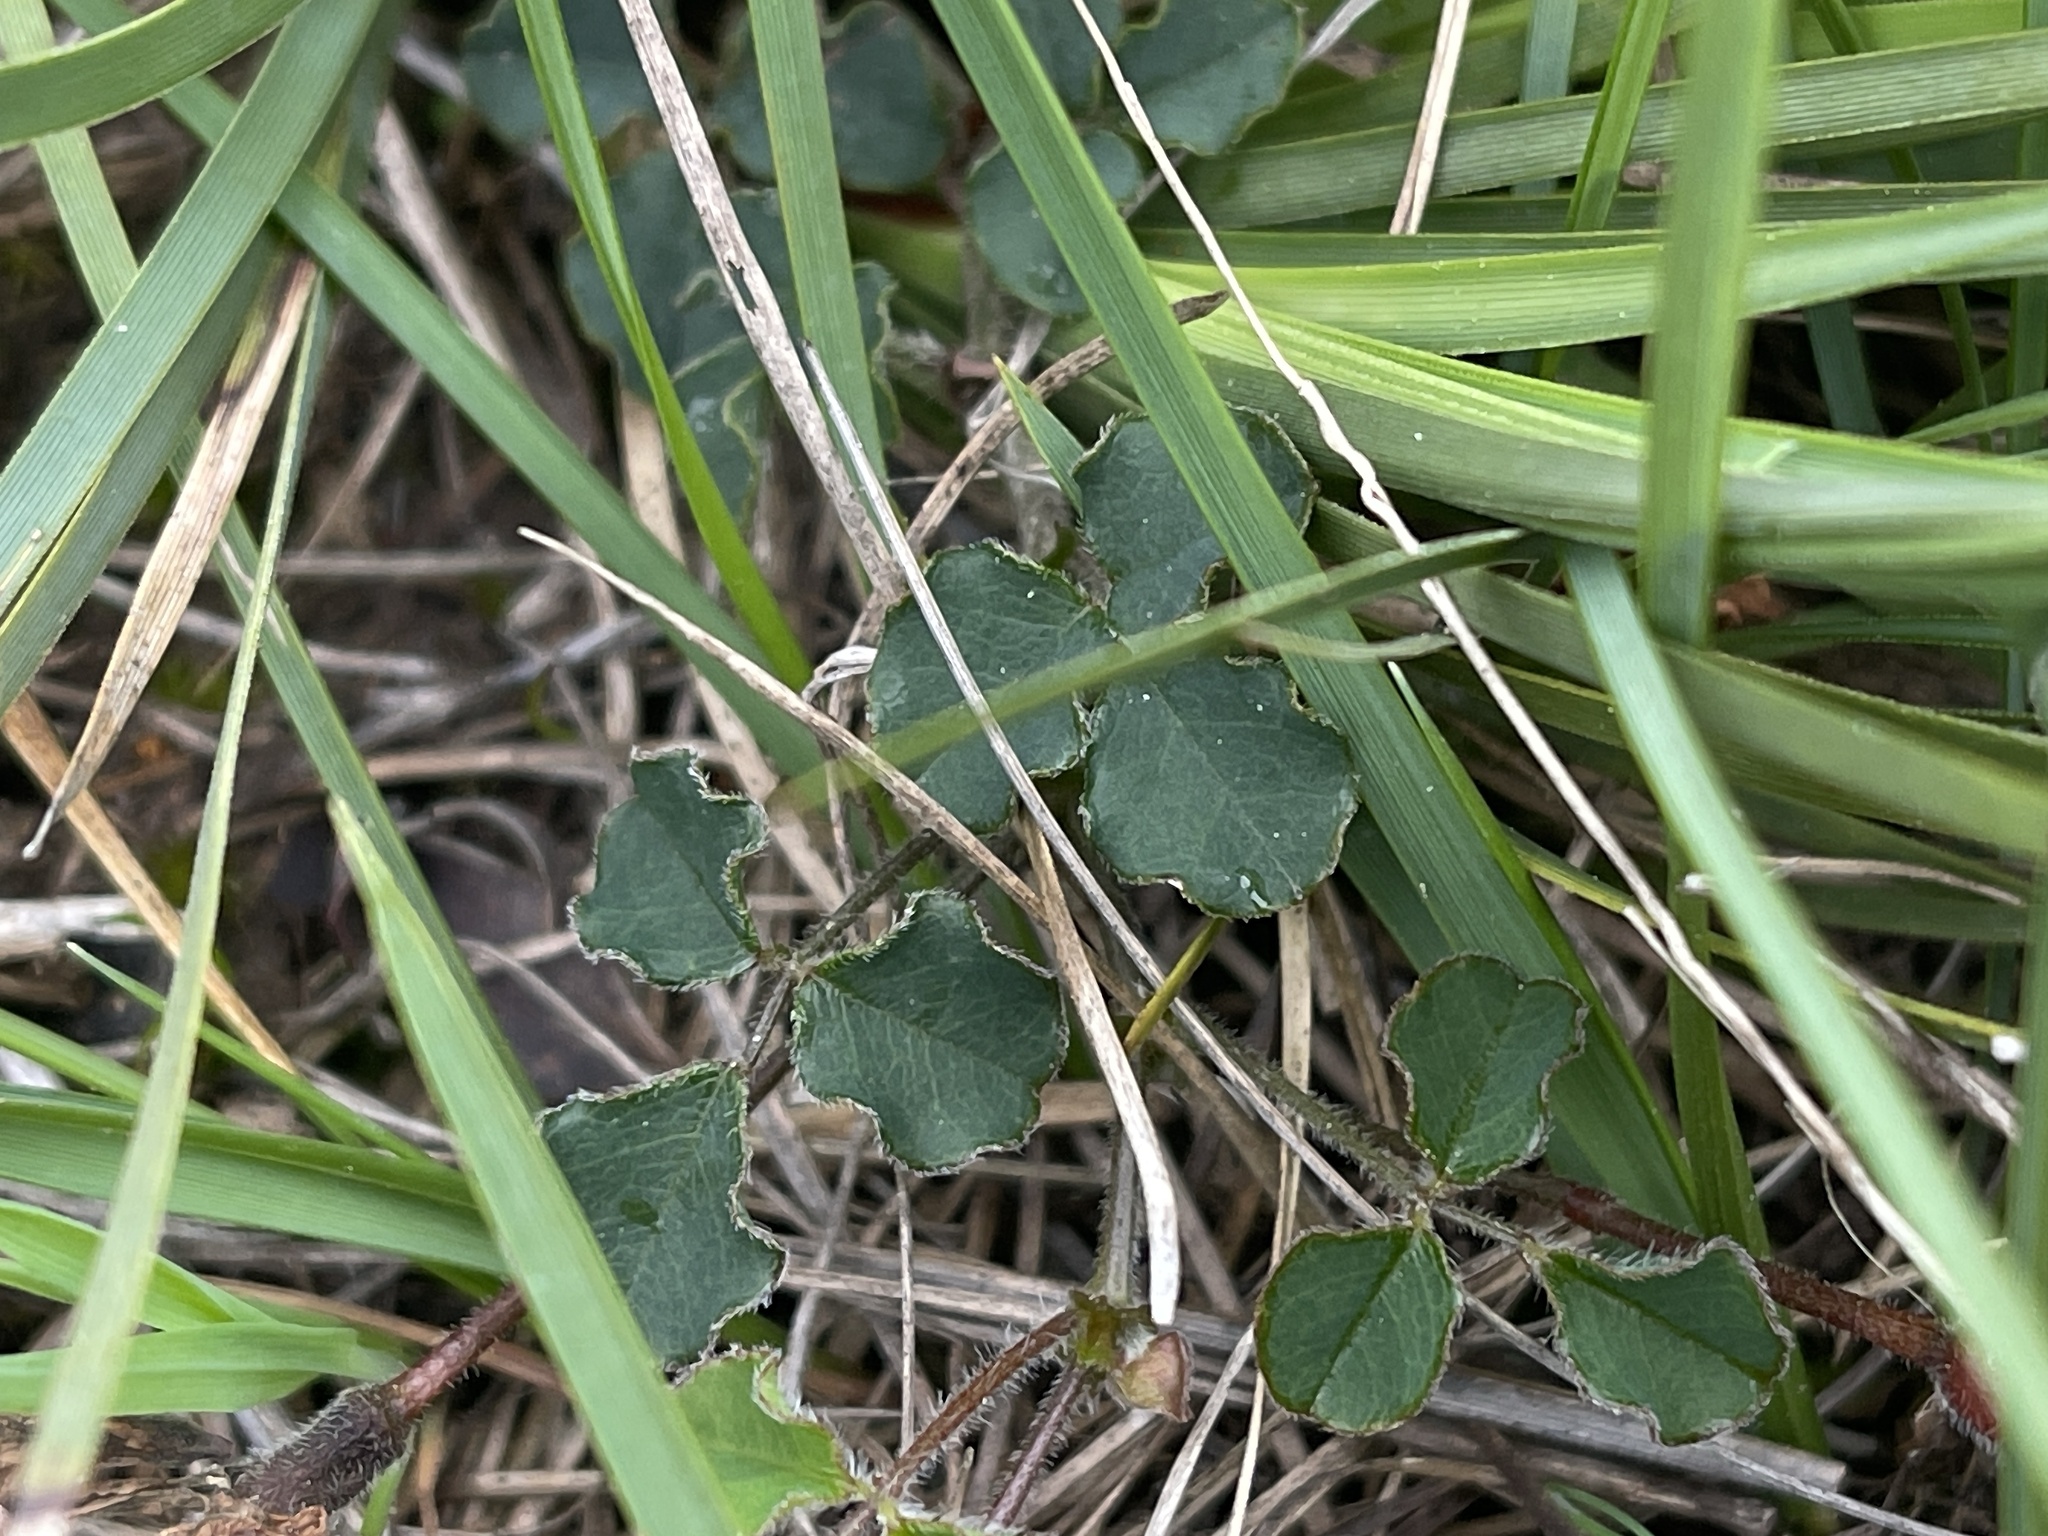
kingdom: Plantae
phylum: Tracheophyta
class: Magnoliopsida
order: Fabales
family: Fabaceae
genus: Kennedia
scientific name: Kennedia prostrata
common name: Running-postman
